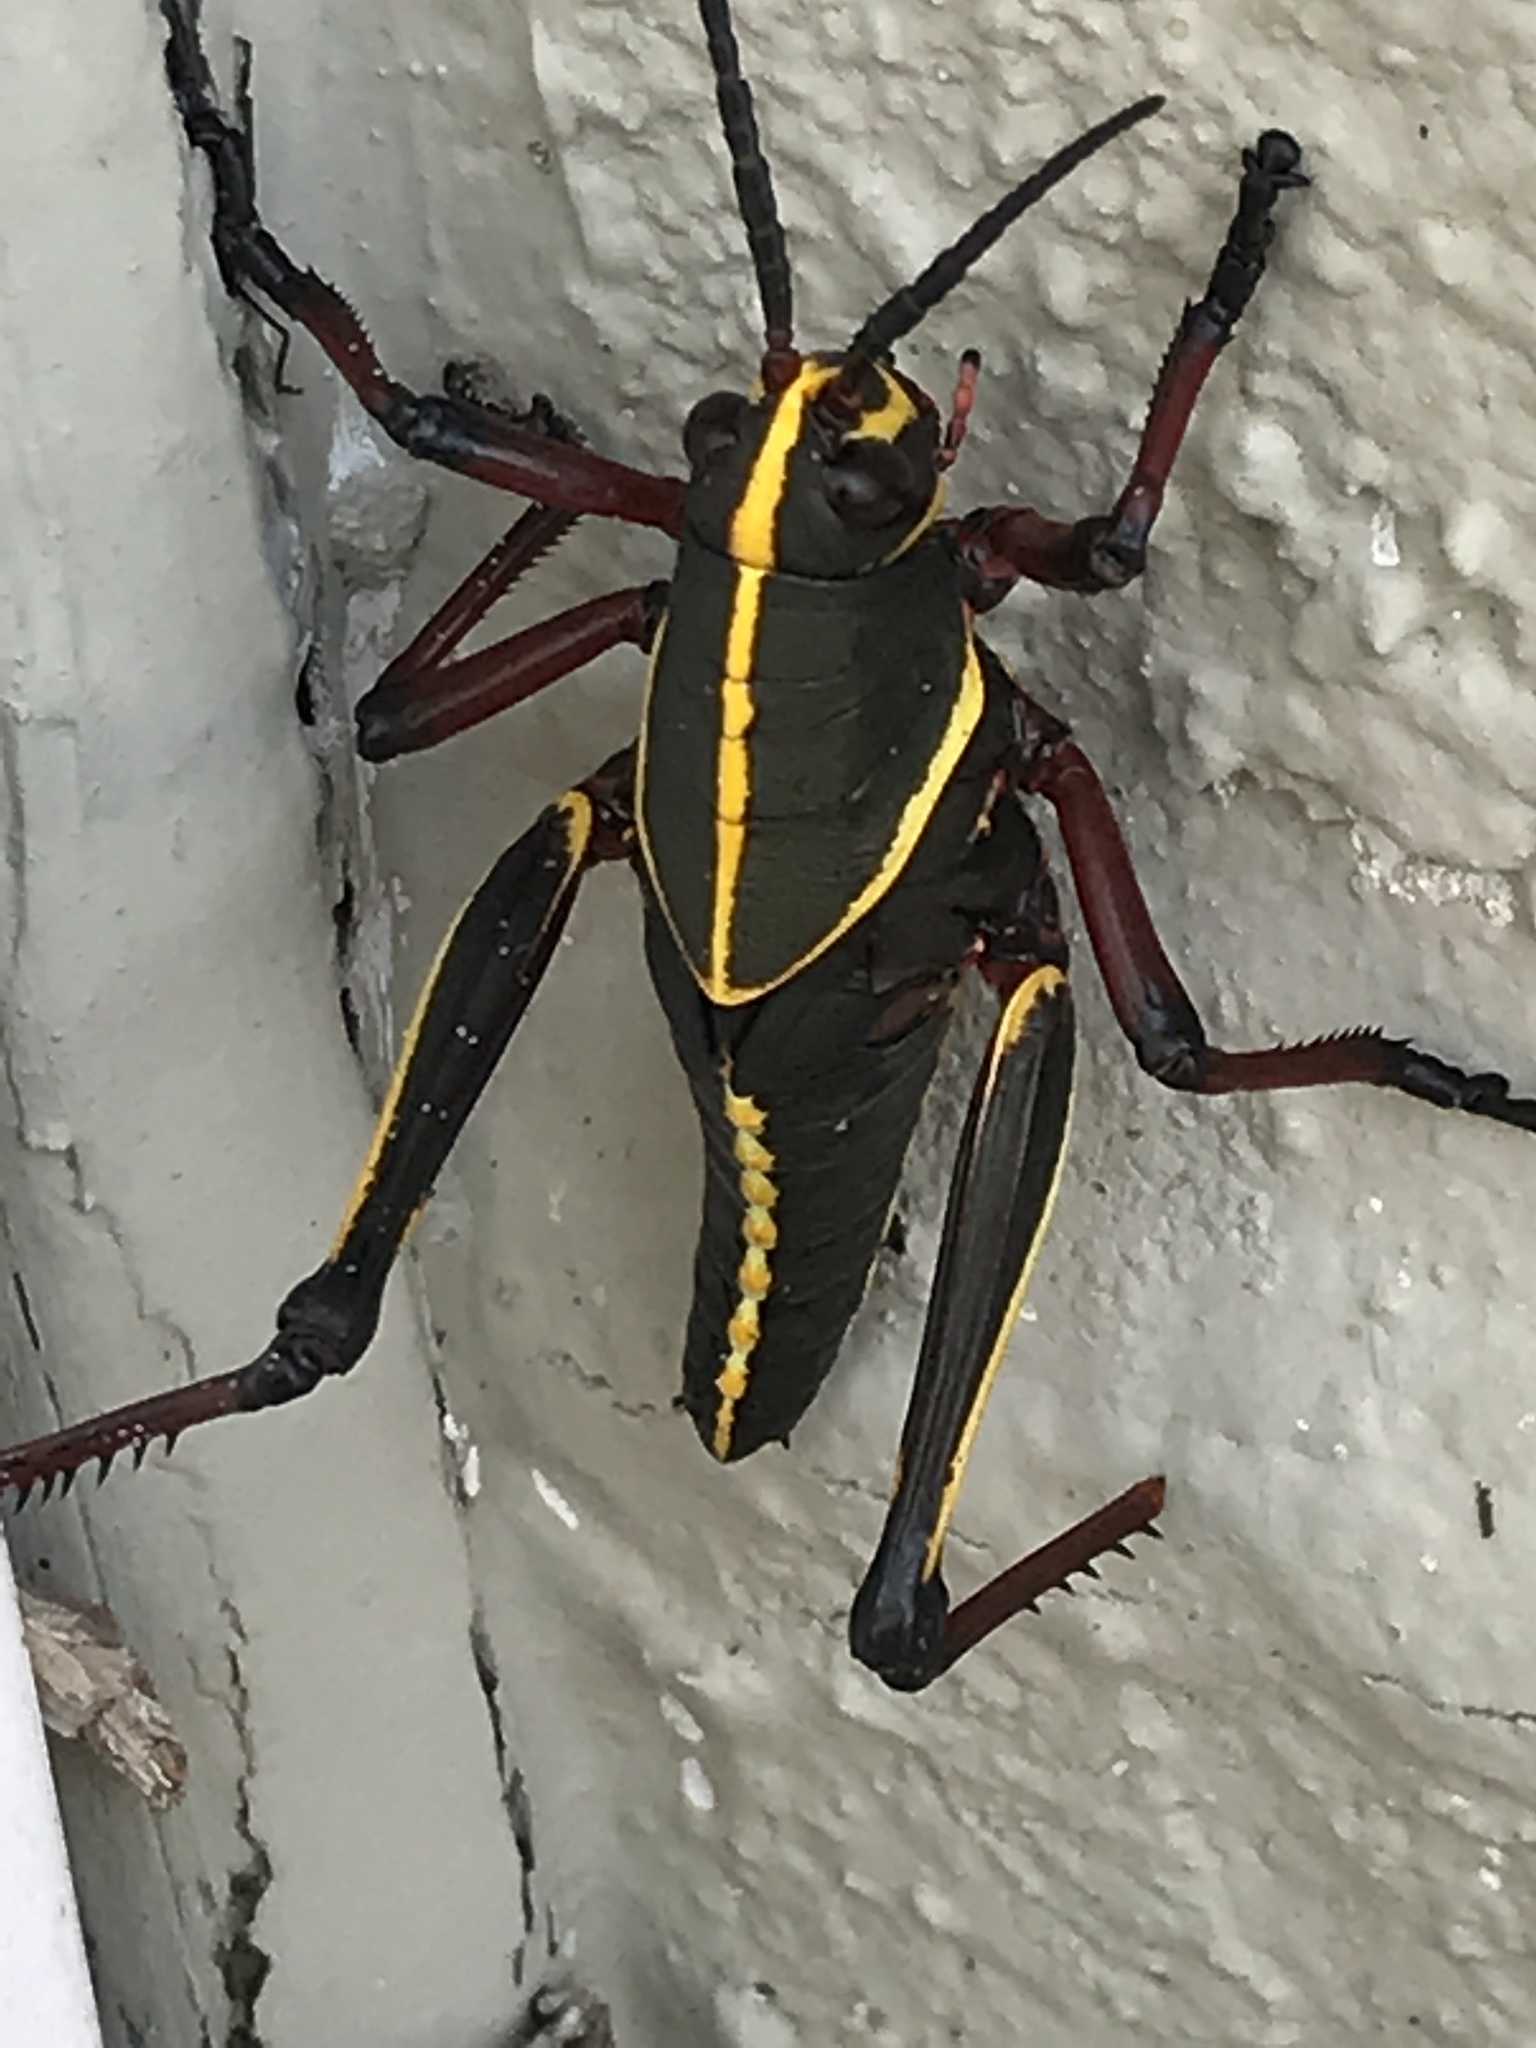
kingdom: Animalia
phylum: Arthropoda
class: Insecta
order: Orthoptera
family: Romaleidae
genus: Romalea
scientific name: Romalea microptera
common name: Eastern lubber grasshopper
